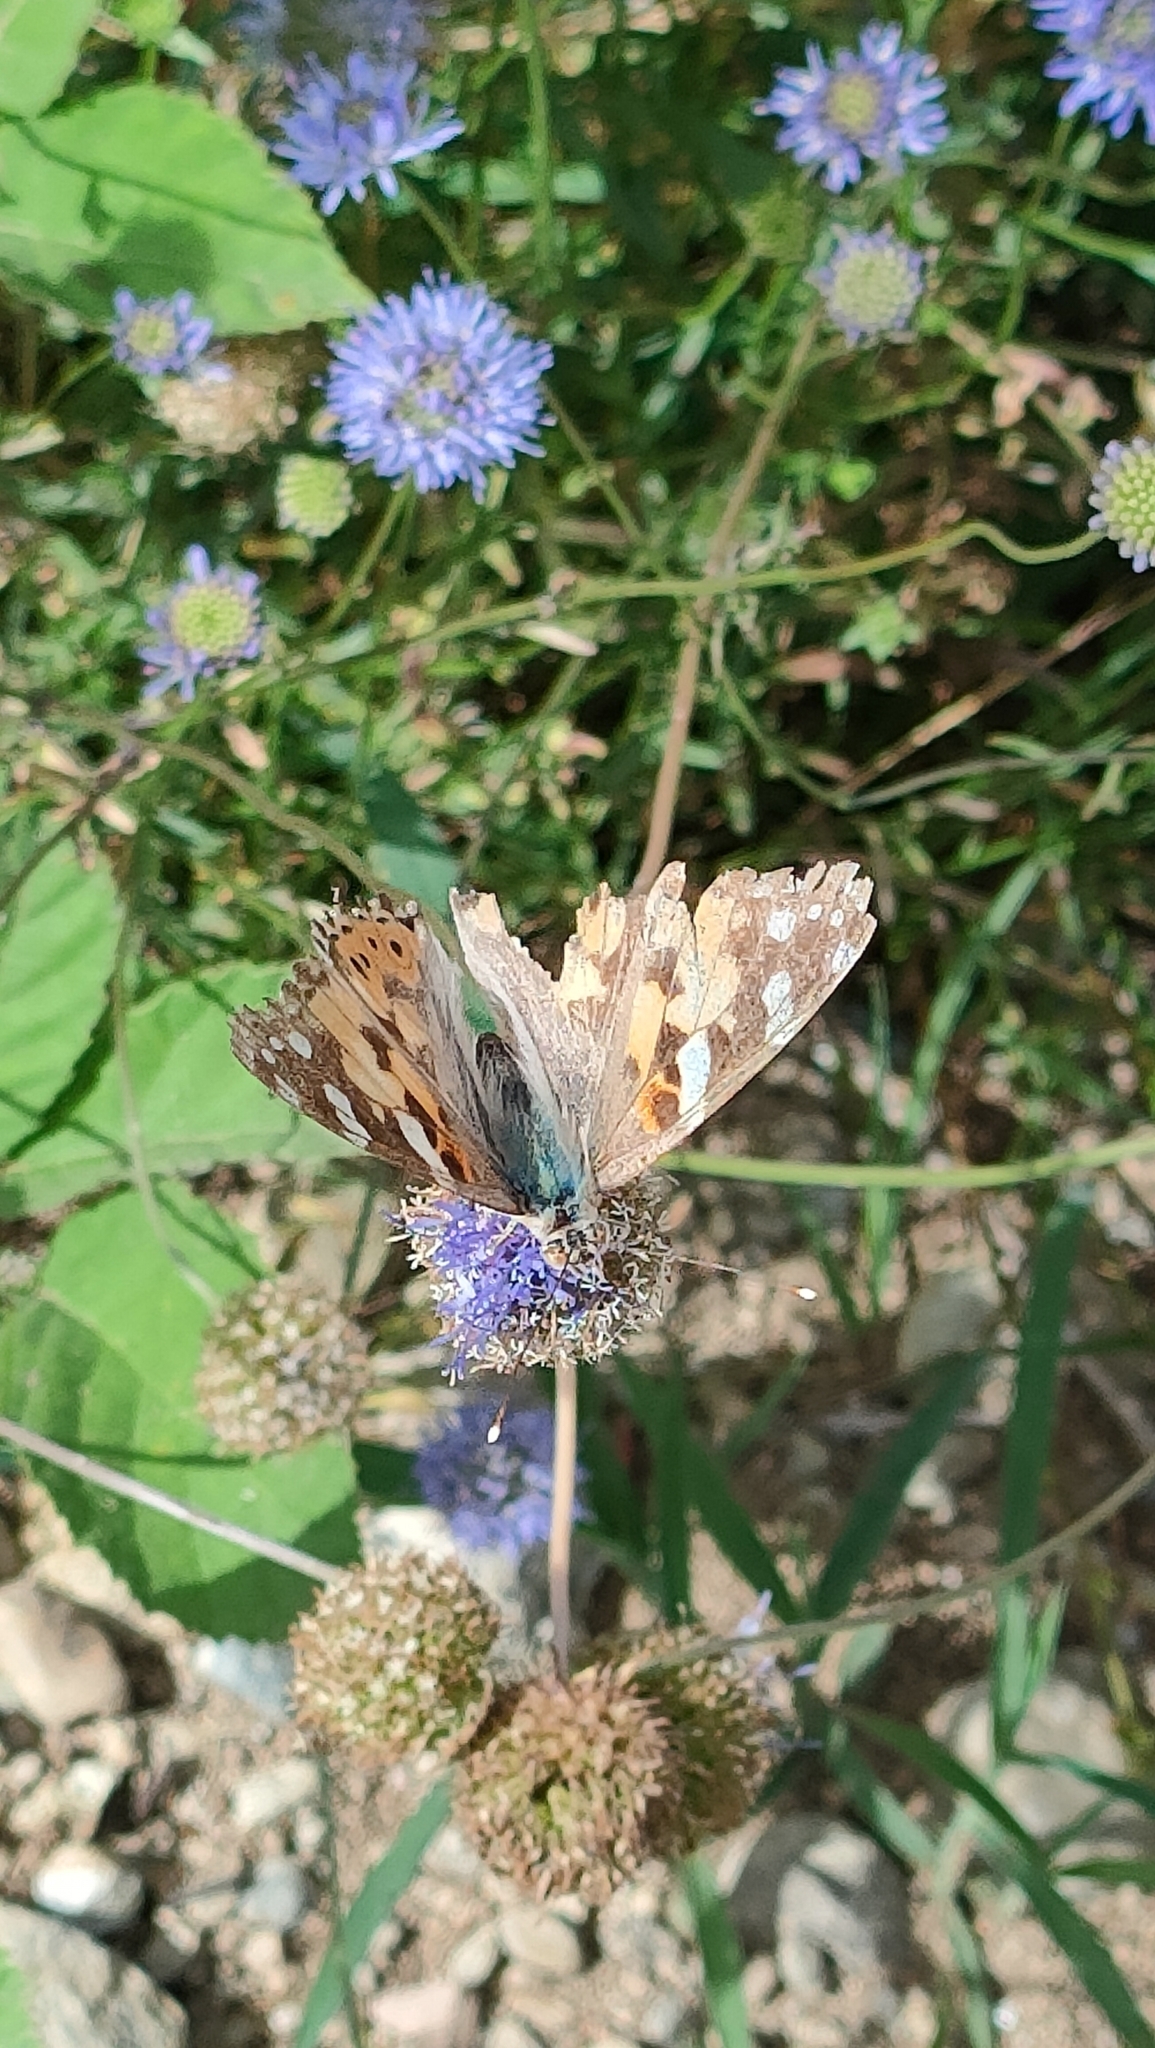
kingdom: Animalia
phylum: Arthropoda
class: Insecta
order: Lepidoptera
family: Nymphalidae
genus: Vanessa
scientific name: Vanessa cardui
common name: Painted lady
